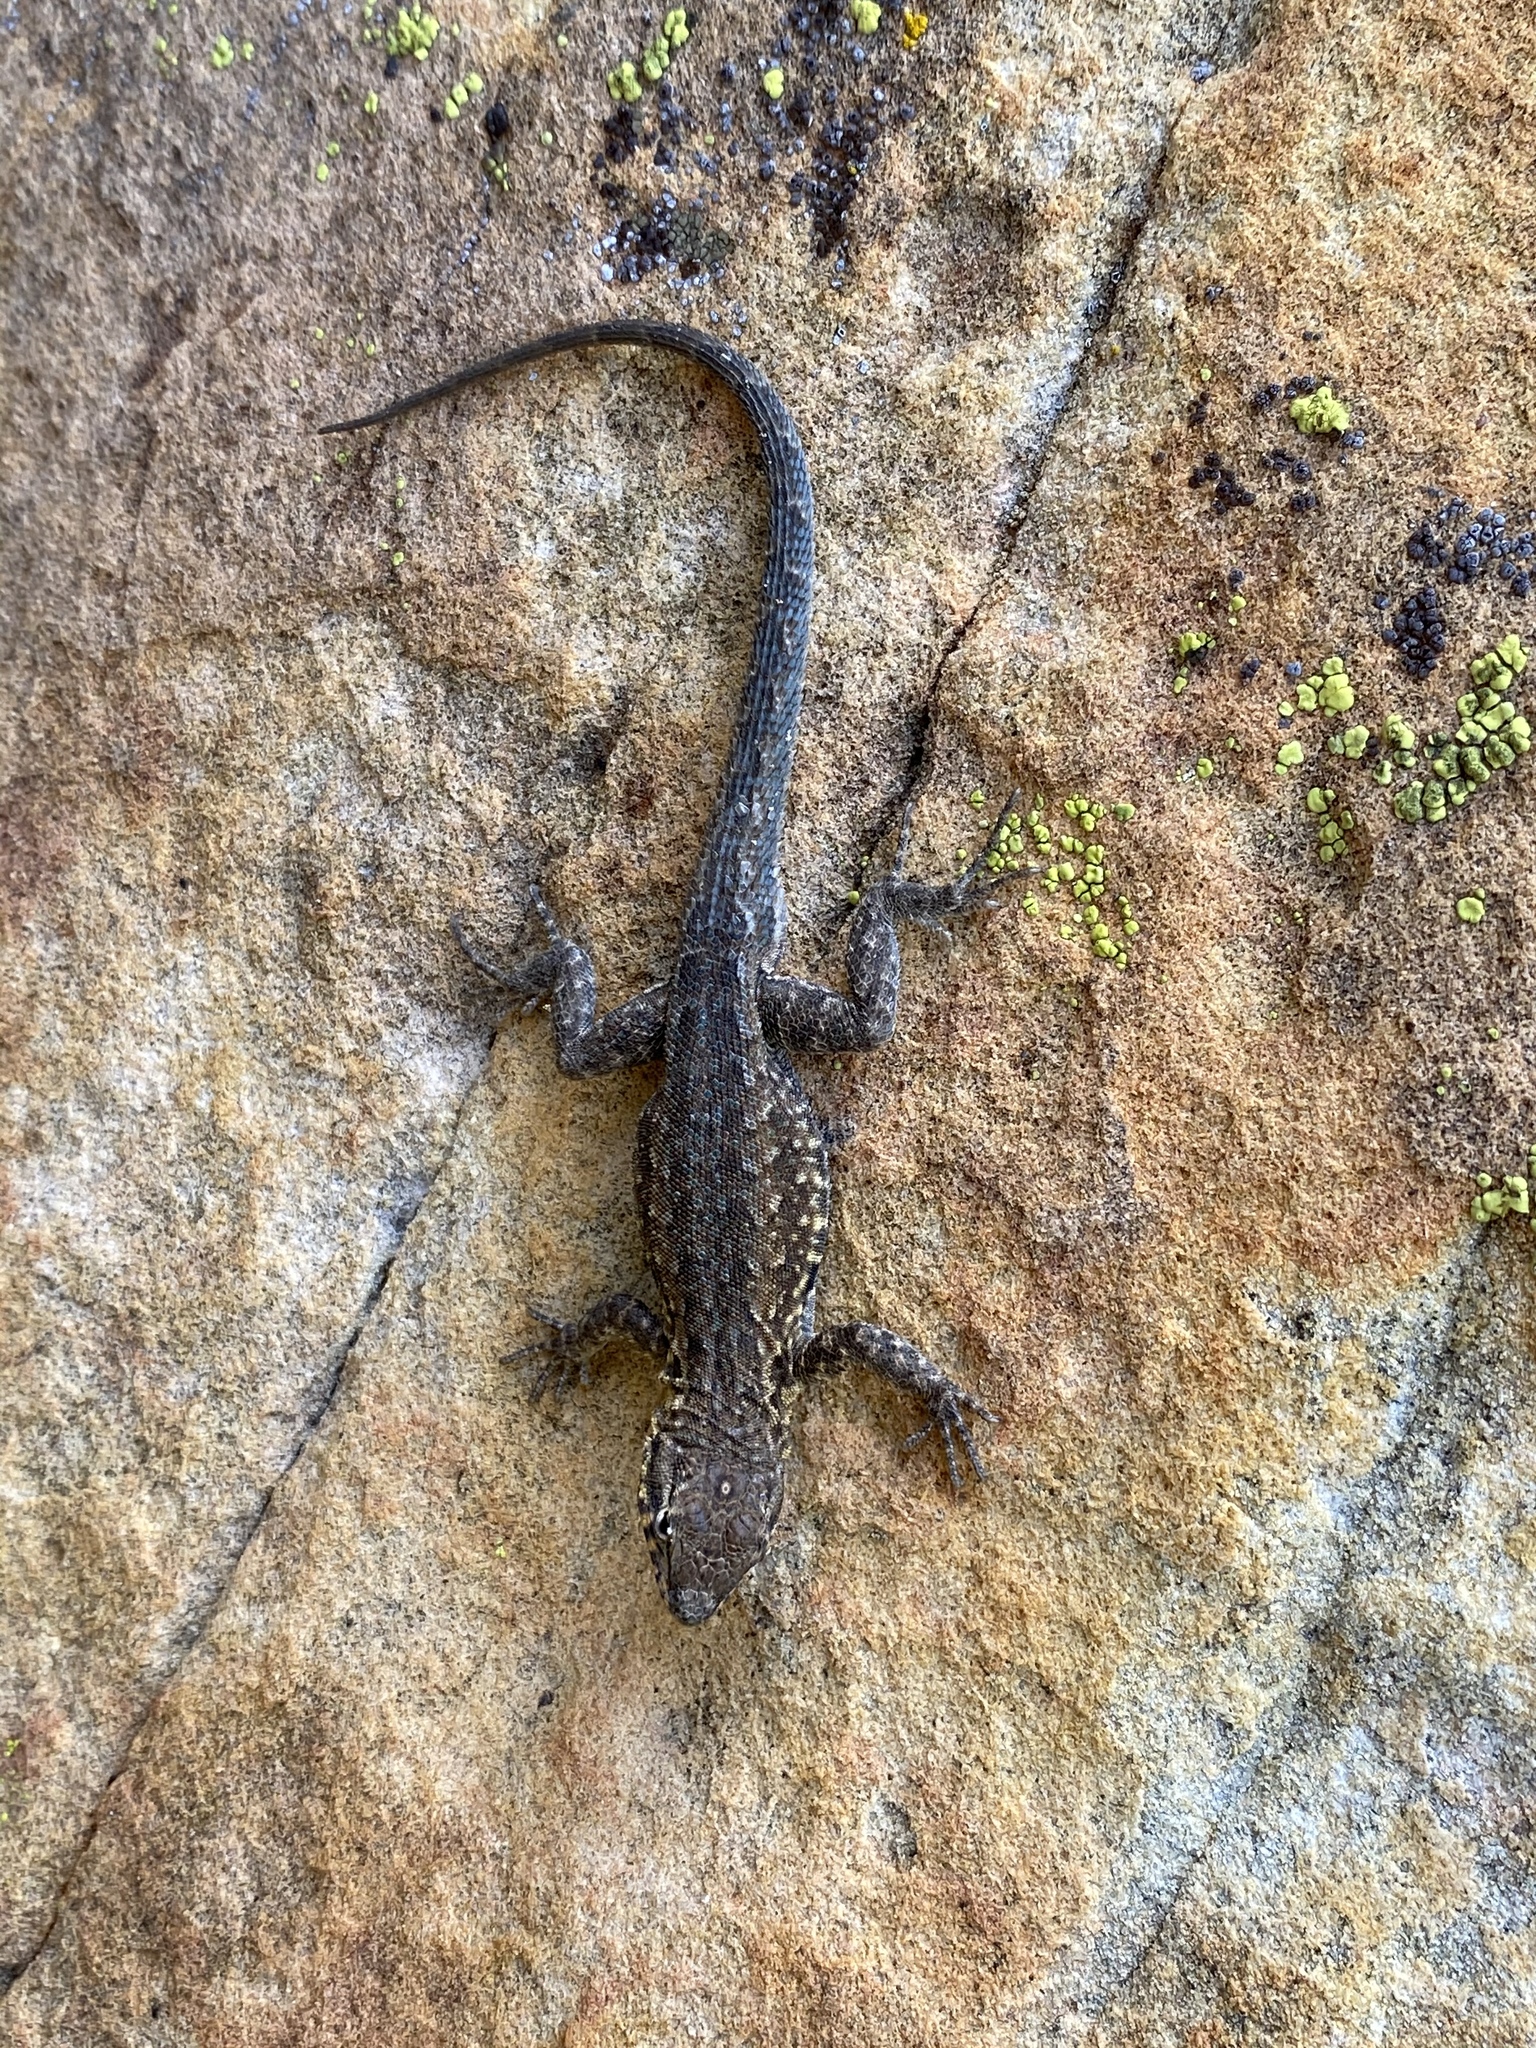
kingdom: Animalia
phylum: Chordata
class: Squamata
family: Phrynosomatidae
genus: Uta
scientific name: Uta stansburiana
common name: Side-blotched lizard
